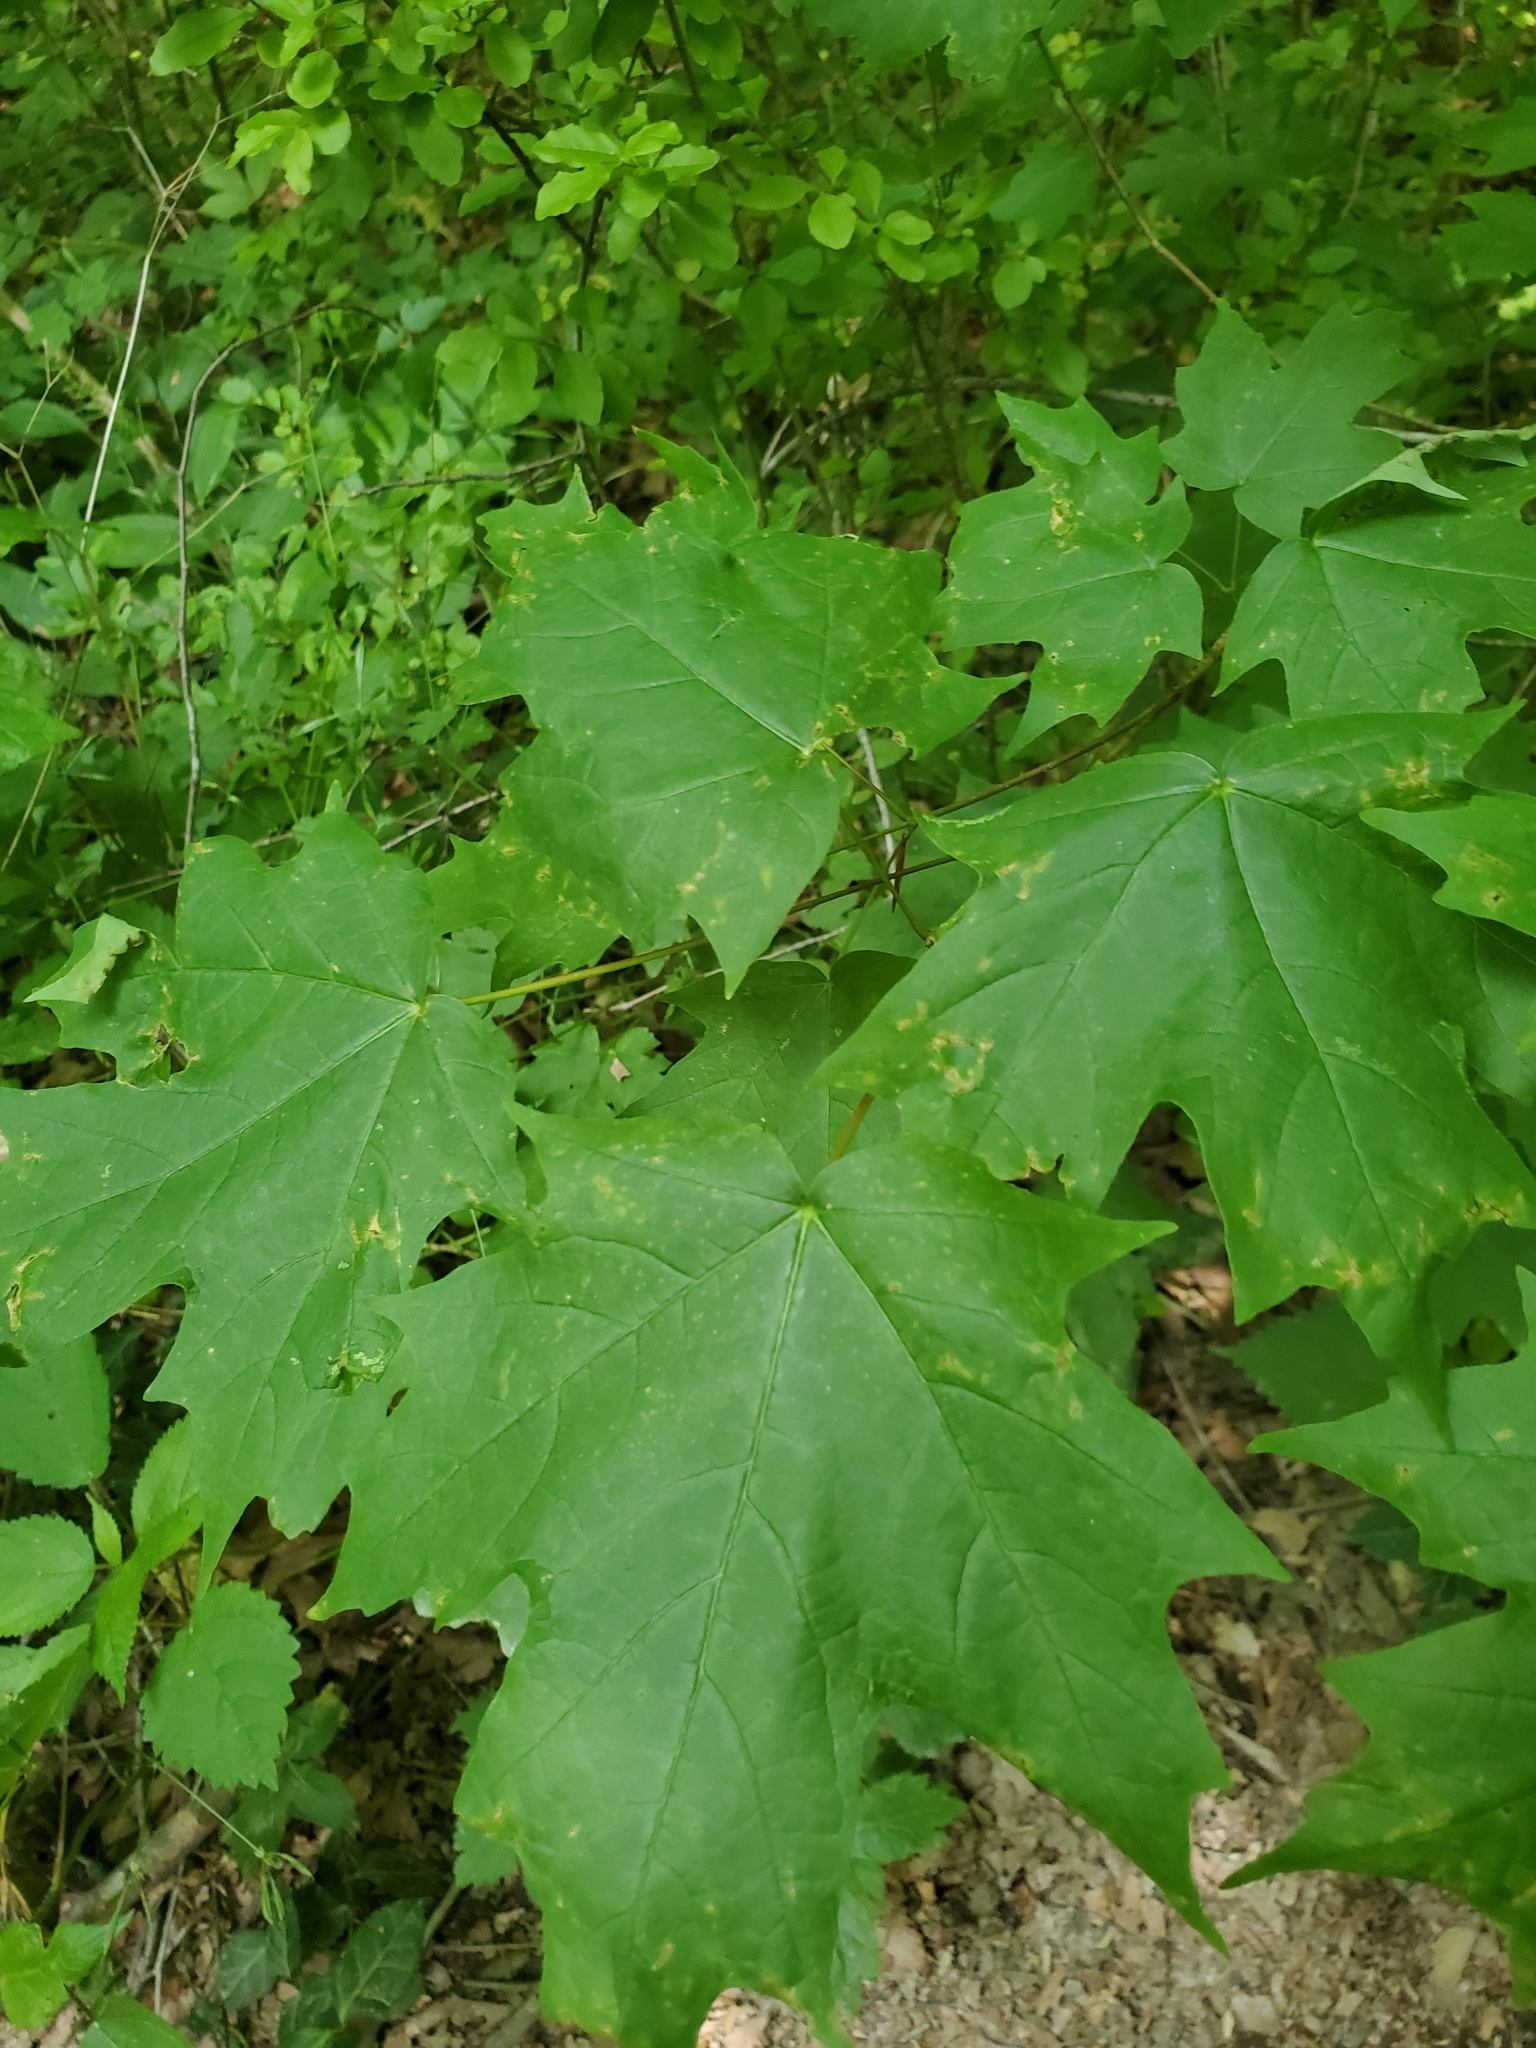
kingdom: Plantae
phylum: Tracheophyta
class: Magnoliopsida
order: Sapindales
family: Sapindaceae
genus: Acer
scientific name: Acer saccharum
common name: Sugar maple
